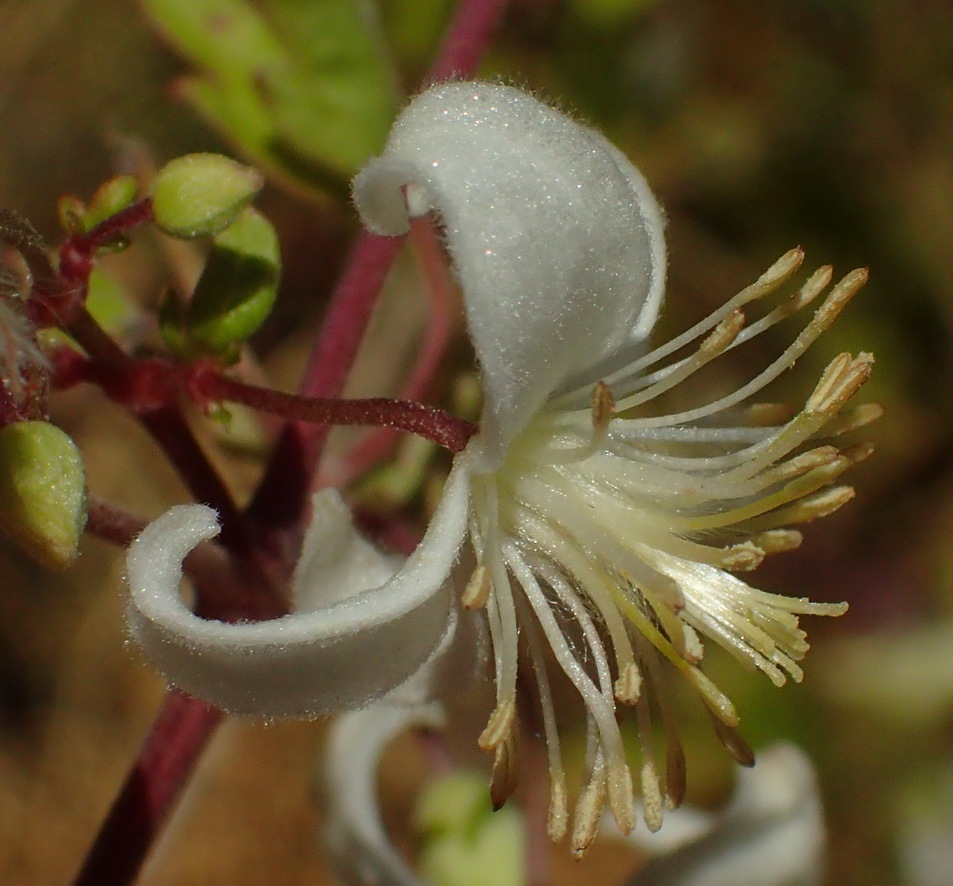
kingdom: Plantae
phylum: Tracheophyta
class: Magnoliopsida
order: Ranunculales
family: Ranunculaceae
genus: Clematis
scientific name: Clematis brachiata
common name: Traveler's-joy
